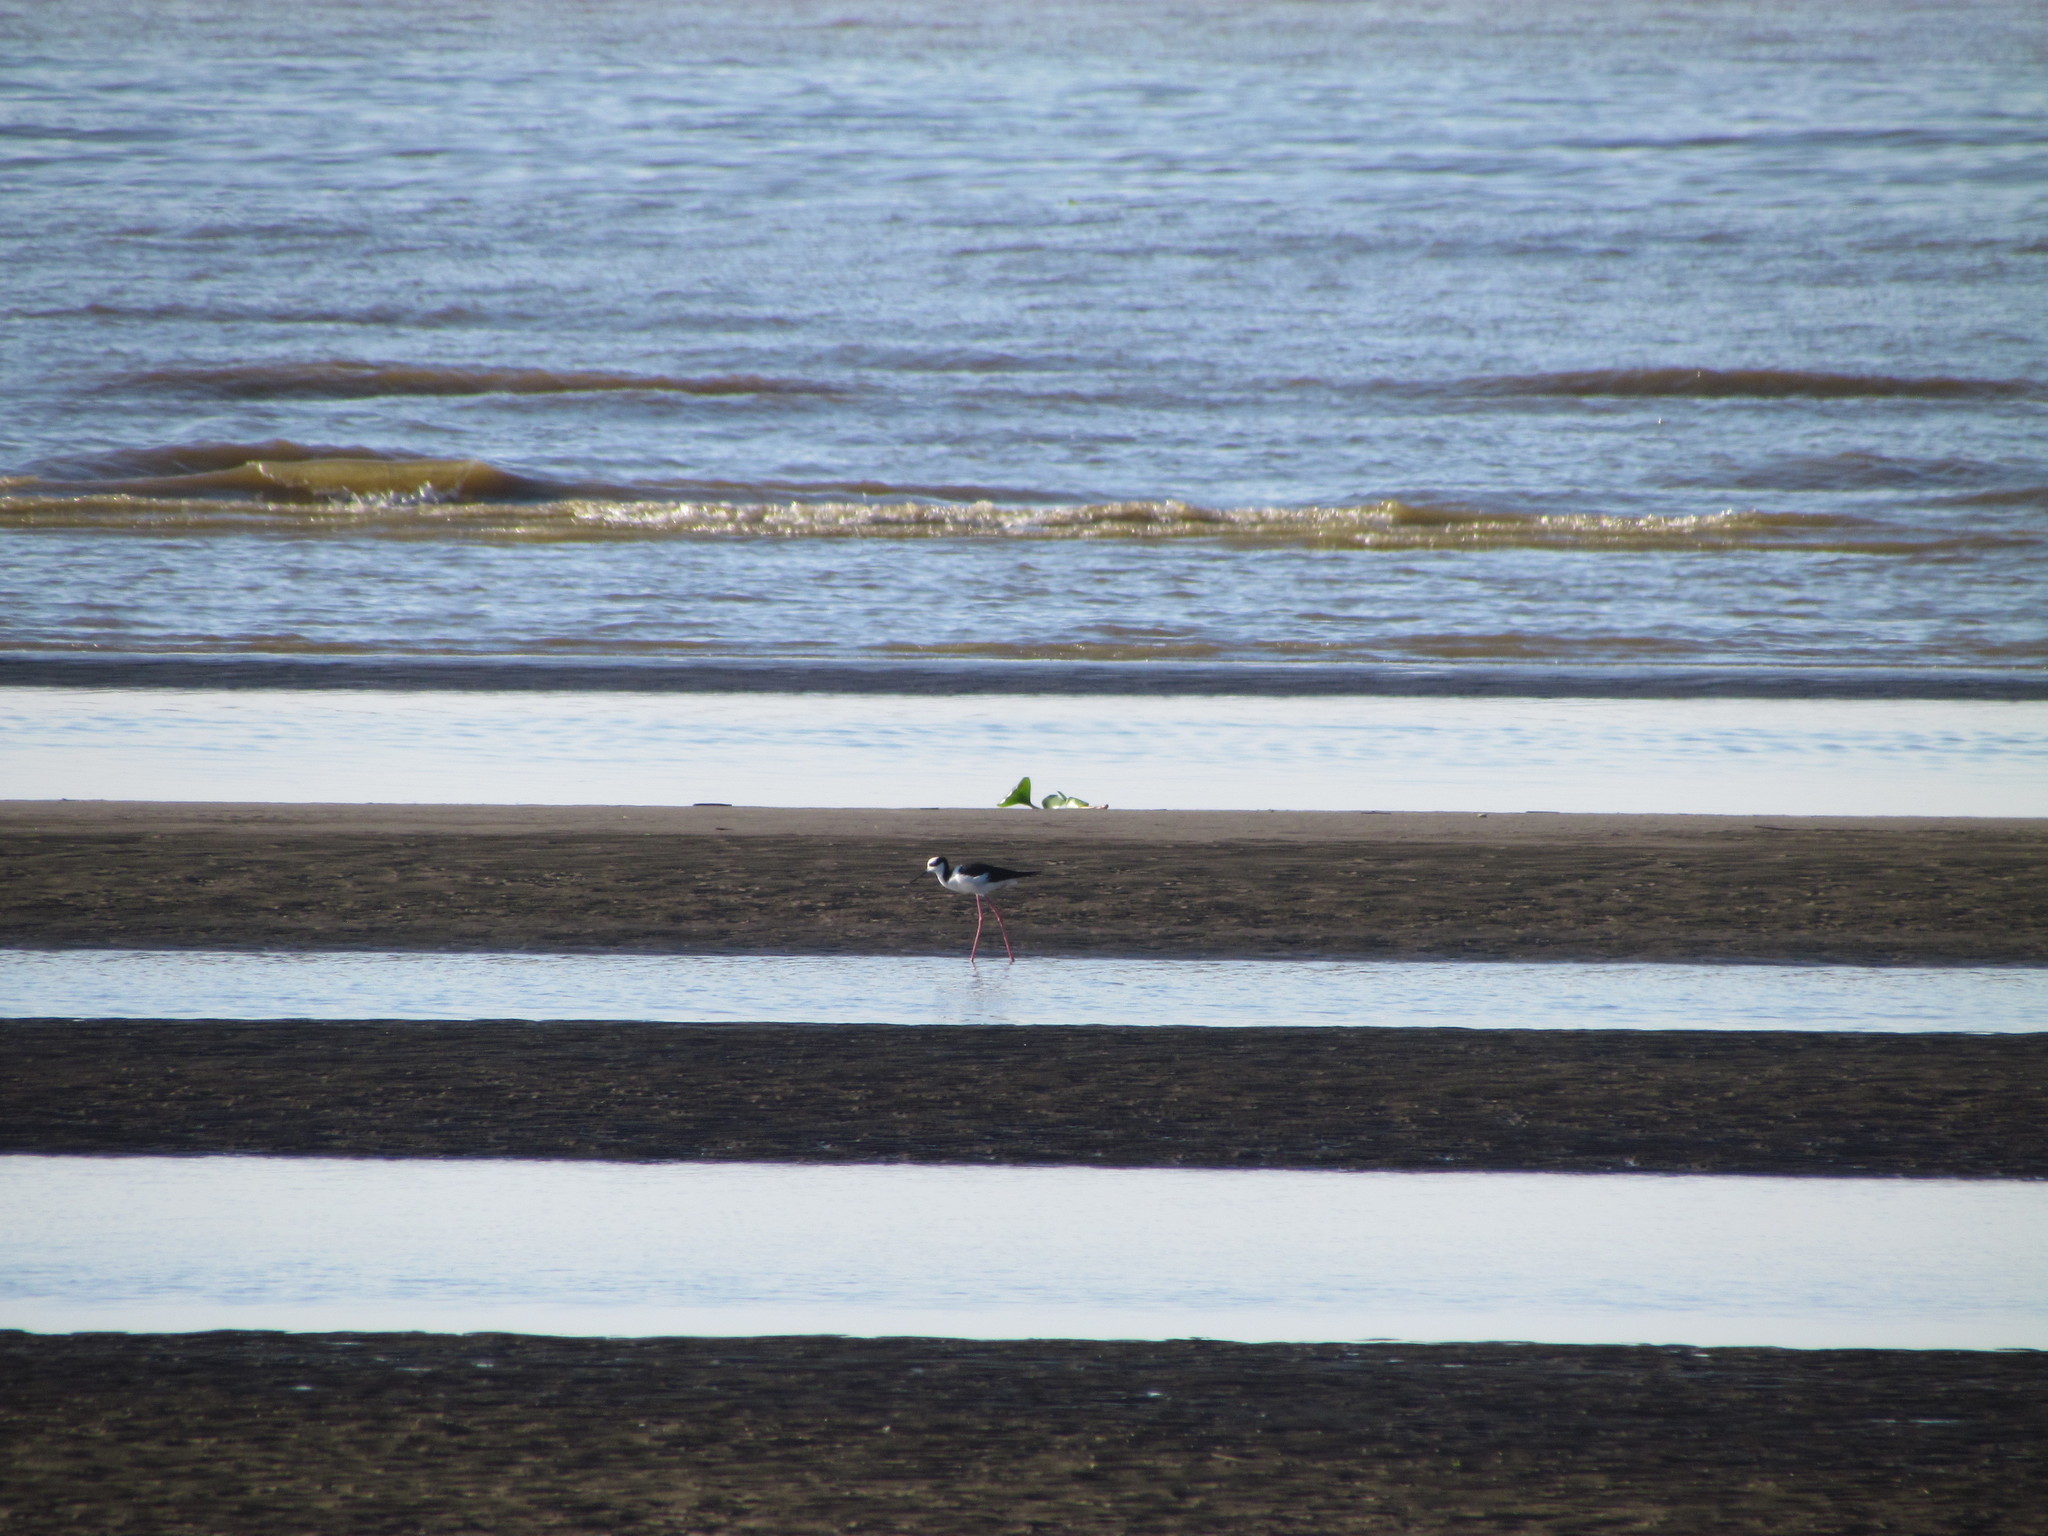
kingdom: Animalia
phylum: Chordata
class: Aves
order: Charadriiformes
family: Recurvirostridae
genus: Himantopus
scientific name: Himantopus mexicanus
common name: Black-necked stilt
